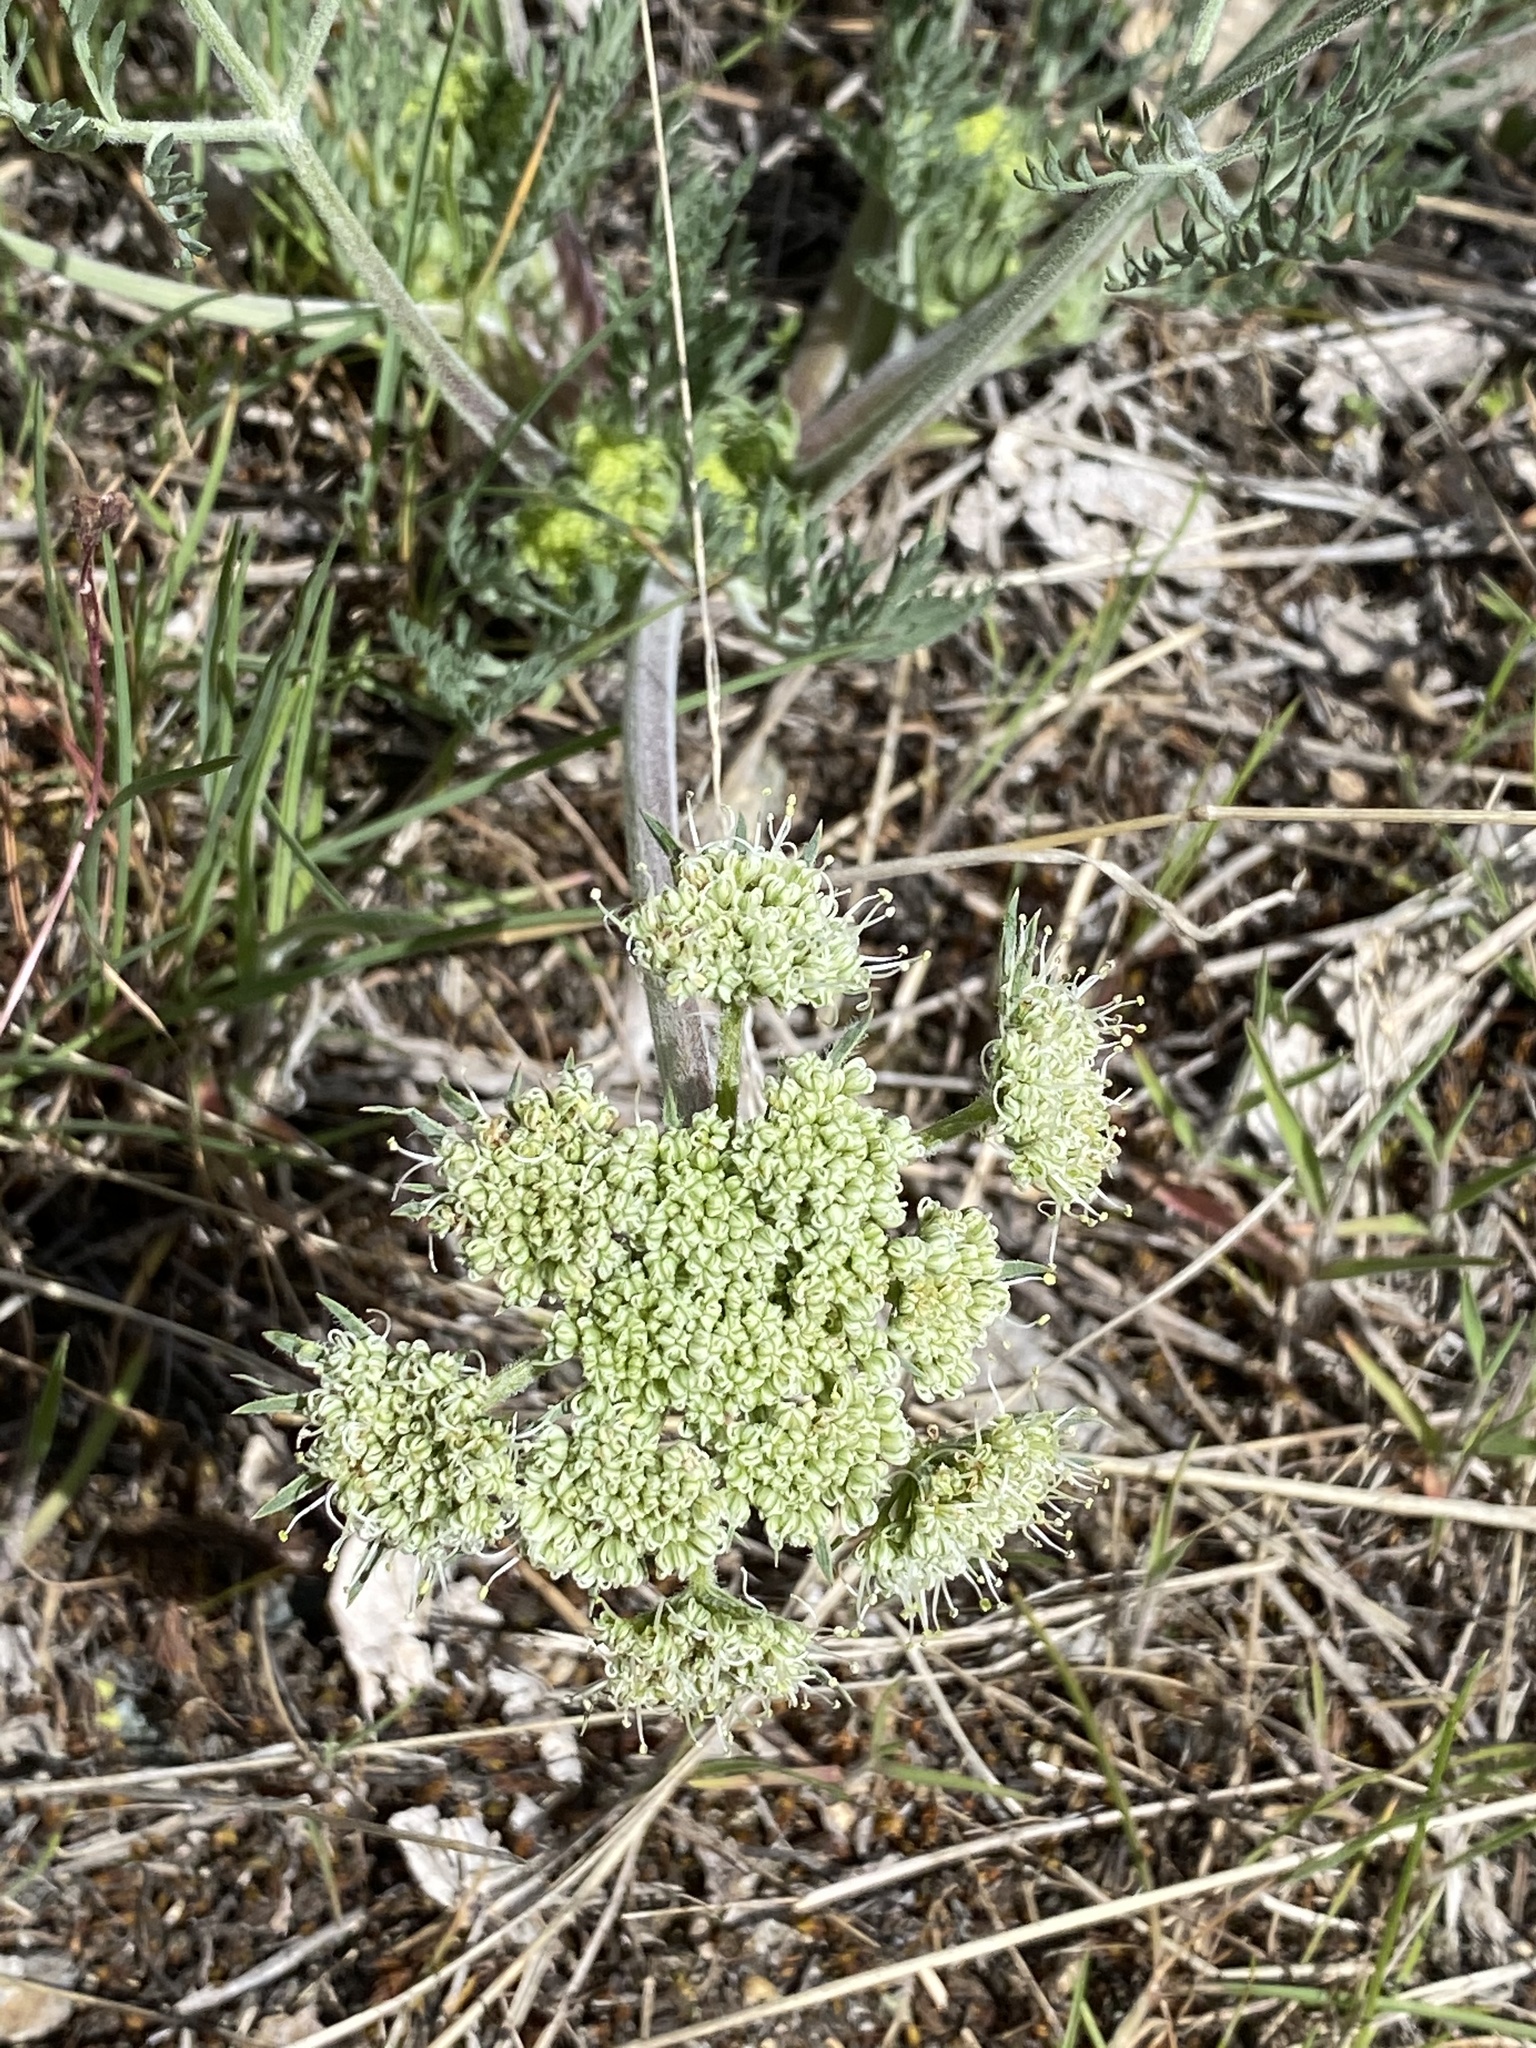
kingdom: Plantae
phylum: Tracheophyta
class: Magnoliopsida
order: Apiales
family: Apiaceae
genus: Lomatium
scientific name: Lomatium macrocarpum
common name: Big-seed biscuitroot
